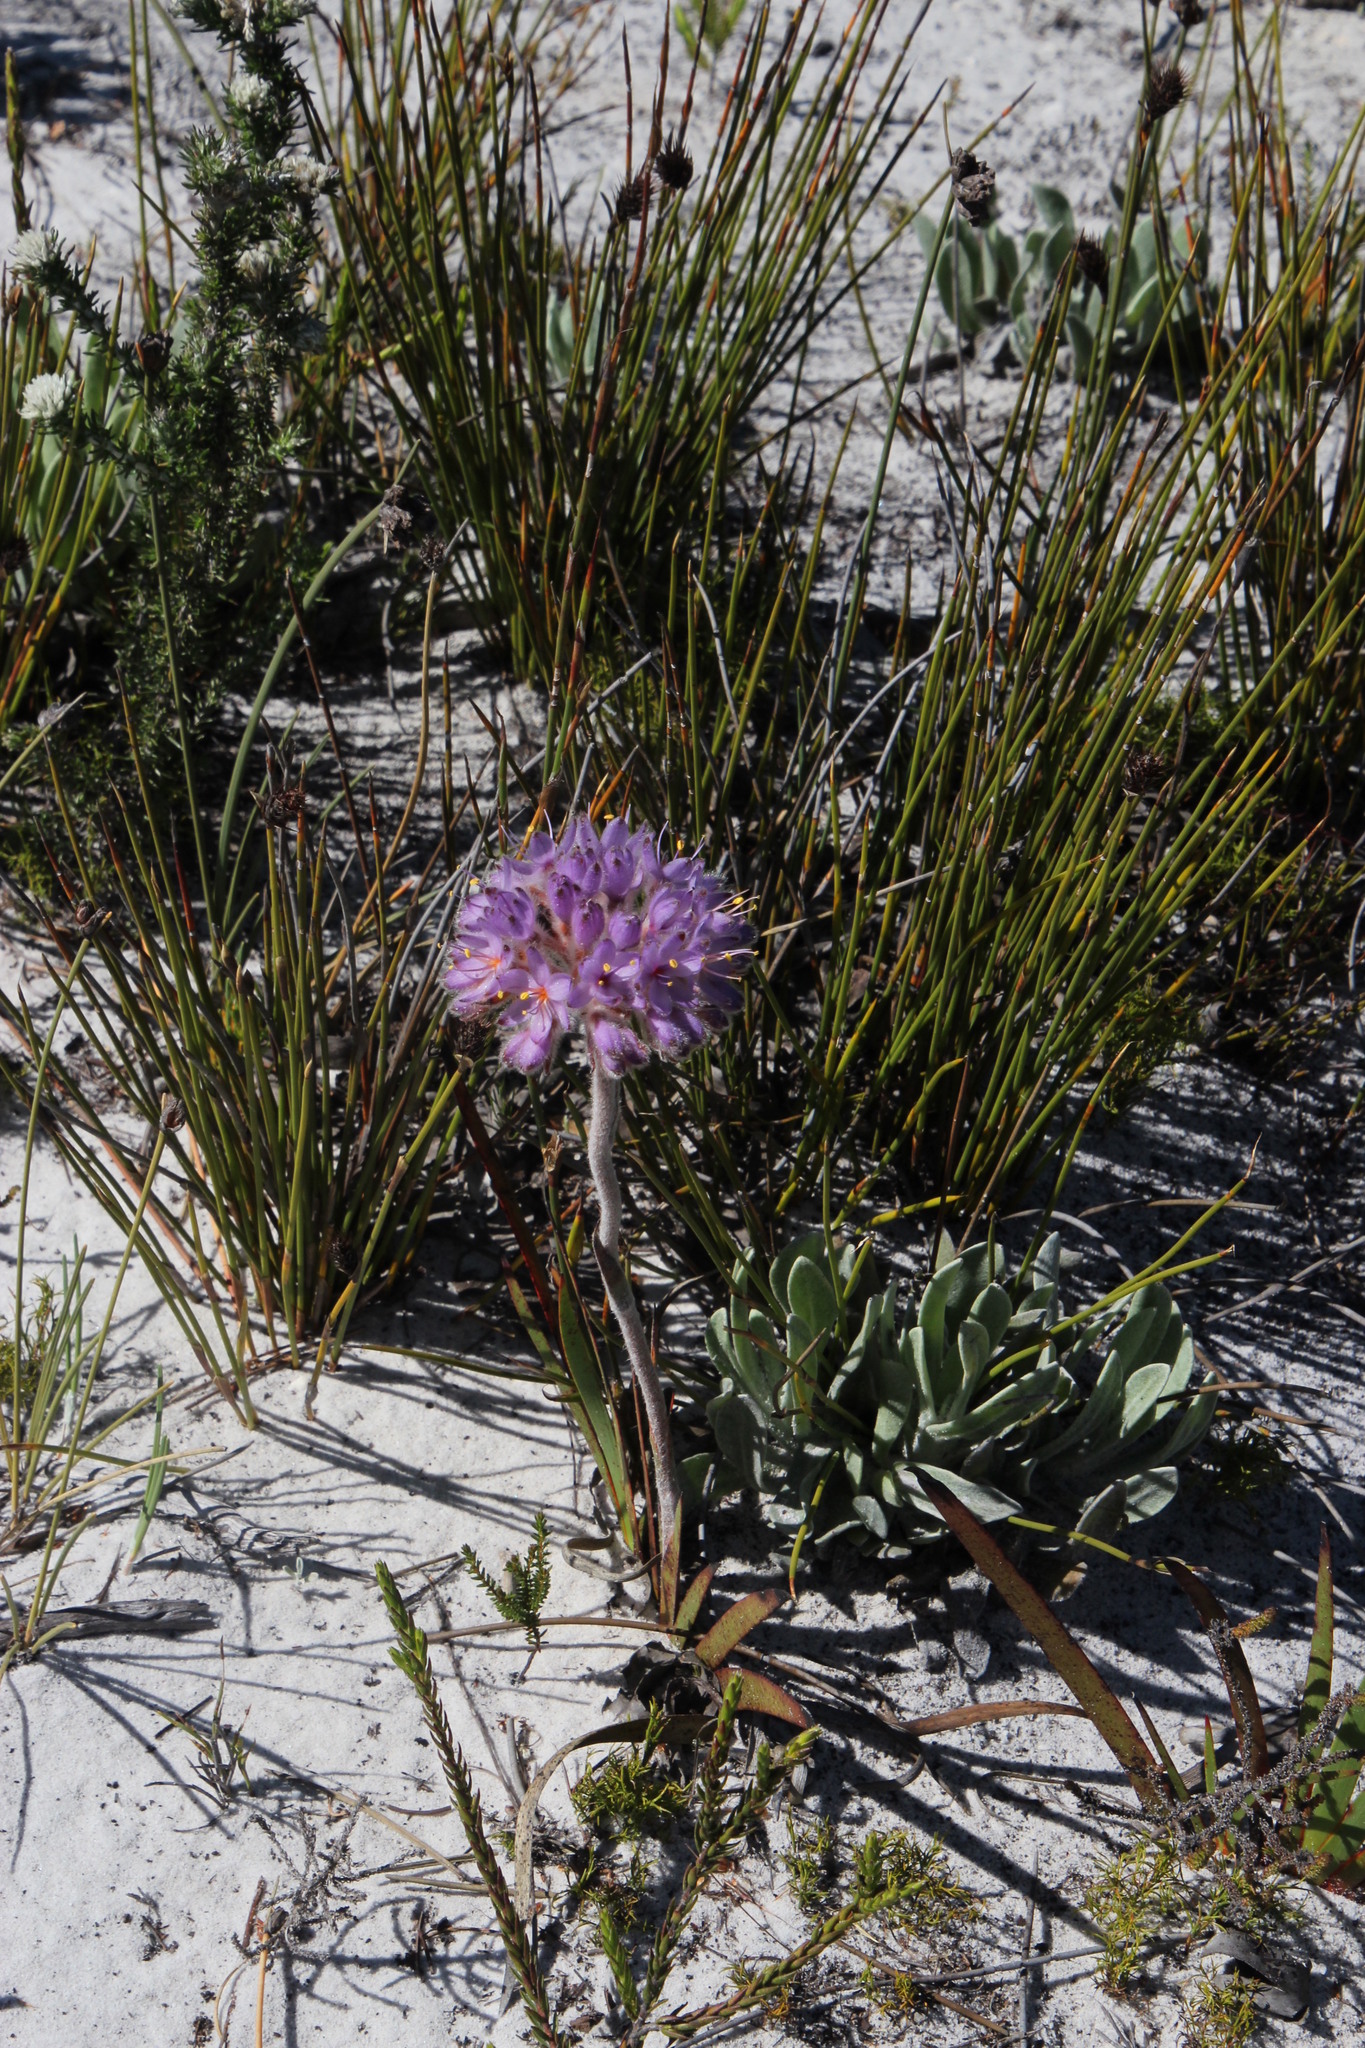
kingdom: Plantae
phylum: Tracheophyta
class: Liliopsida
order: Commelinales
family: Haemodoraceae
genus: Dilatris
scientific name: Dilatris corymbosa
